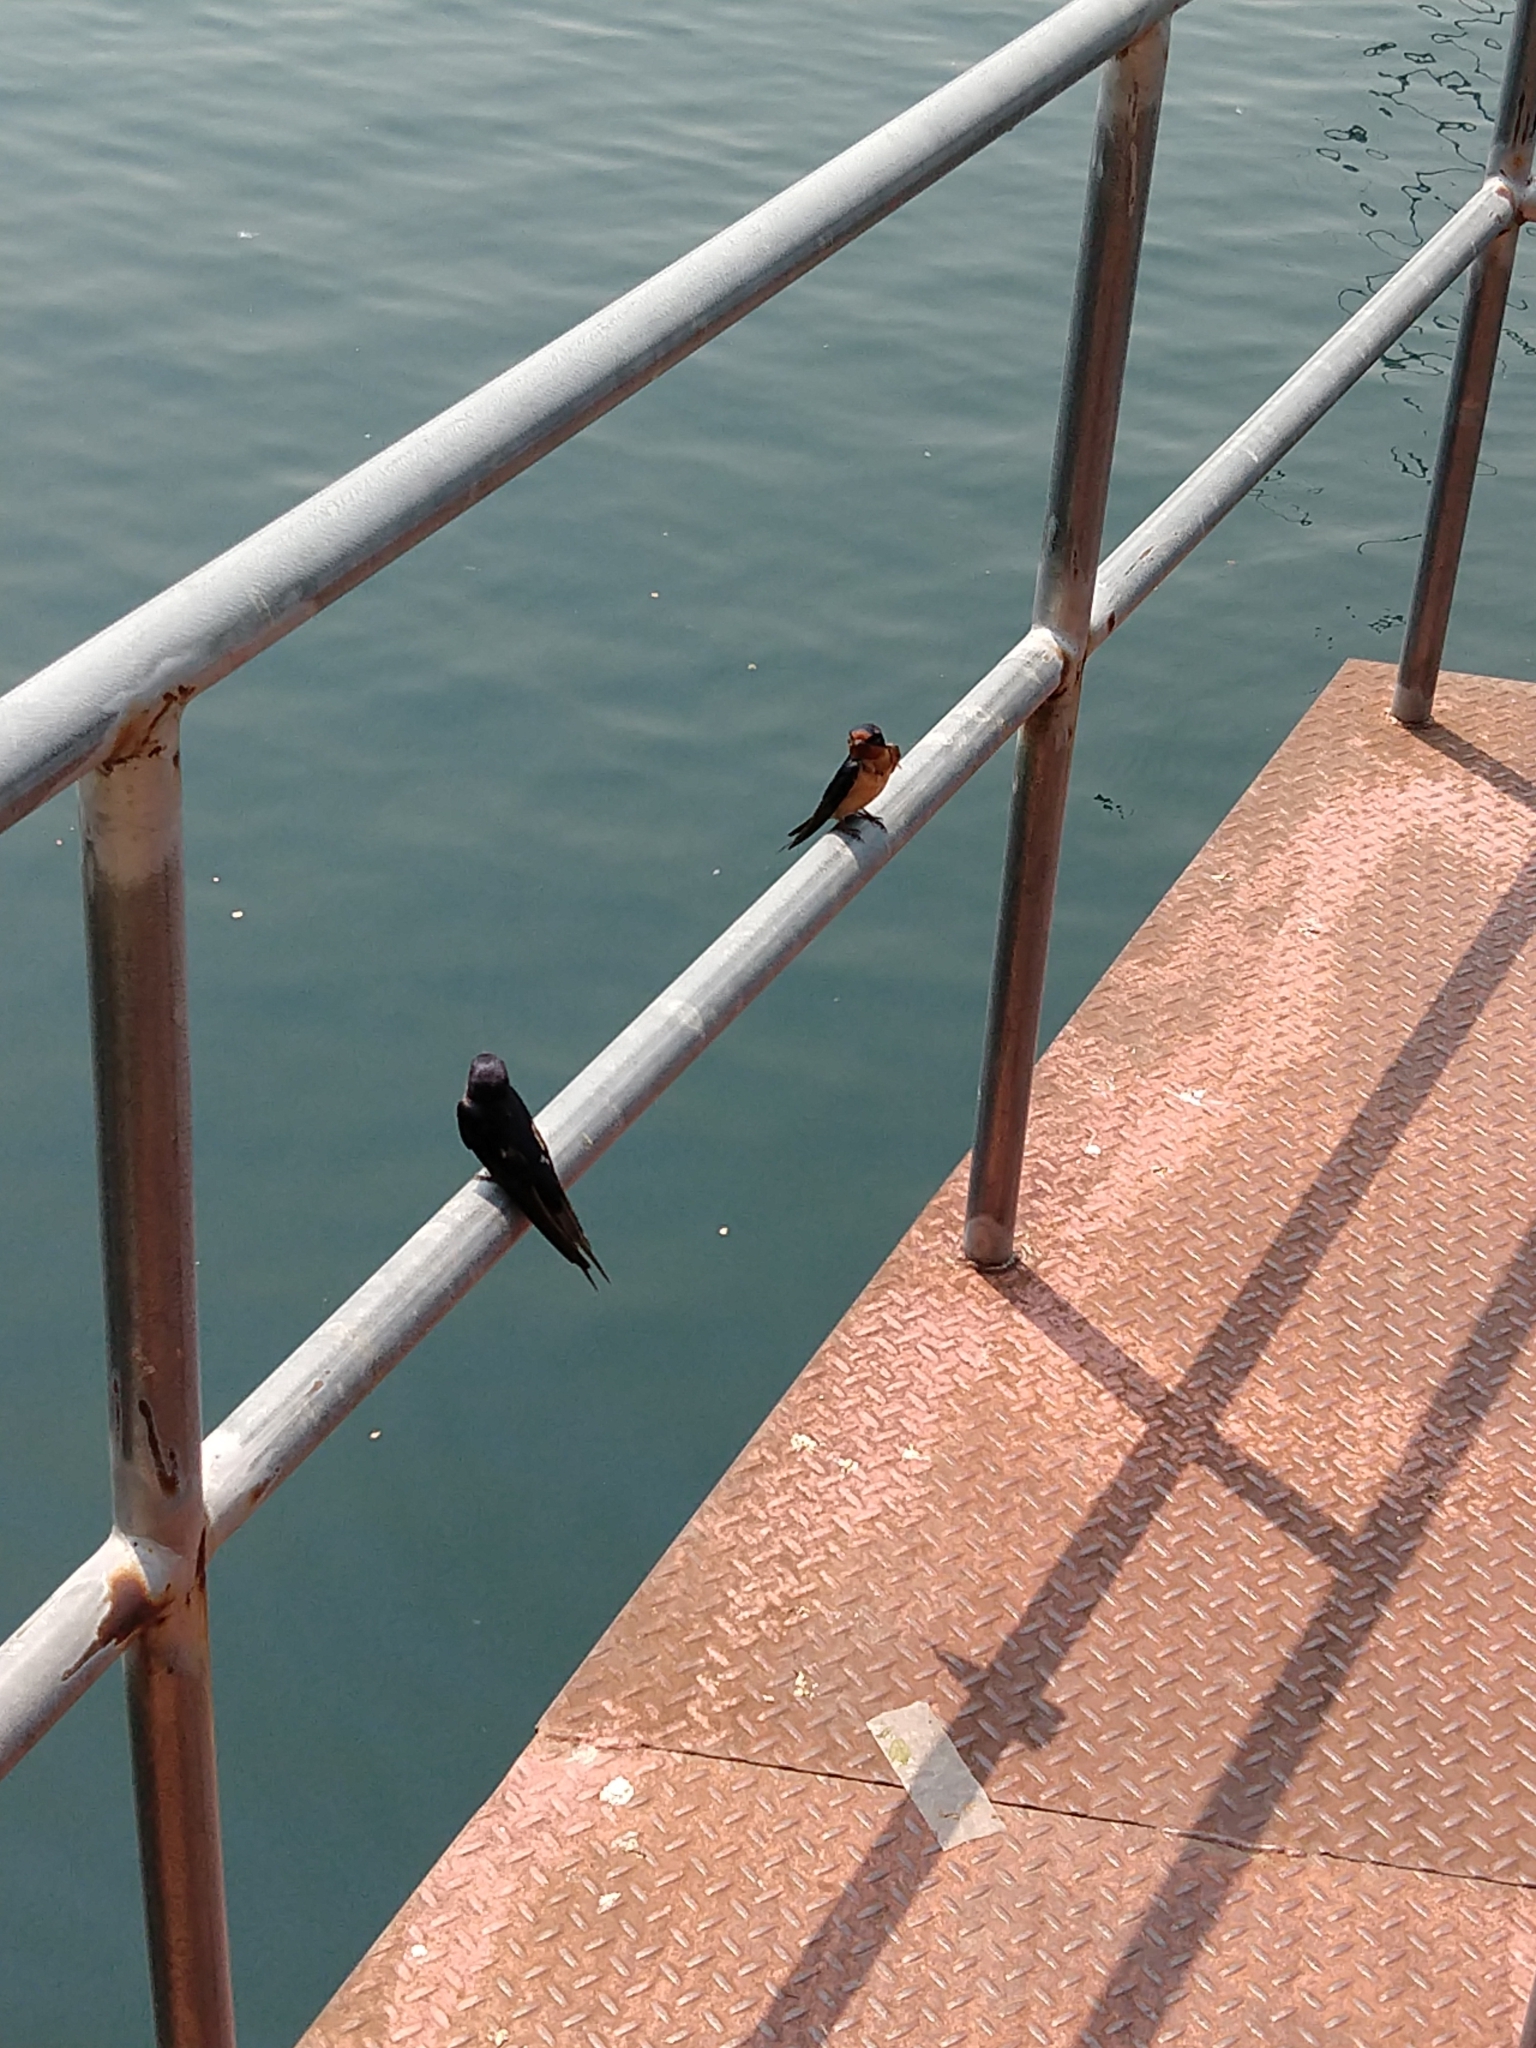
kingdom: Animalia
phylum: Chordata
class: Aves
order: Passeriformes
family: Hirundinidae
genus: Hirundo
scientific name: Hirundo rustica
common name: Barn swallow
